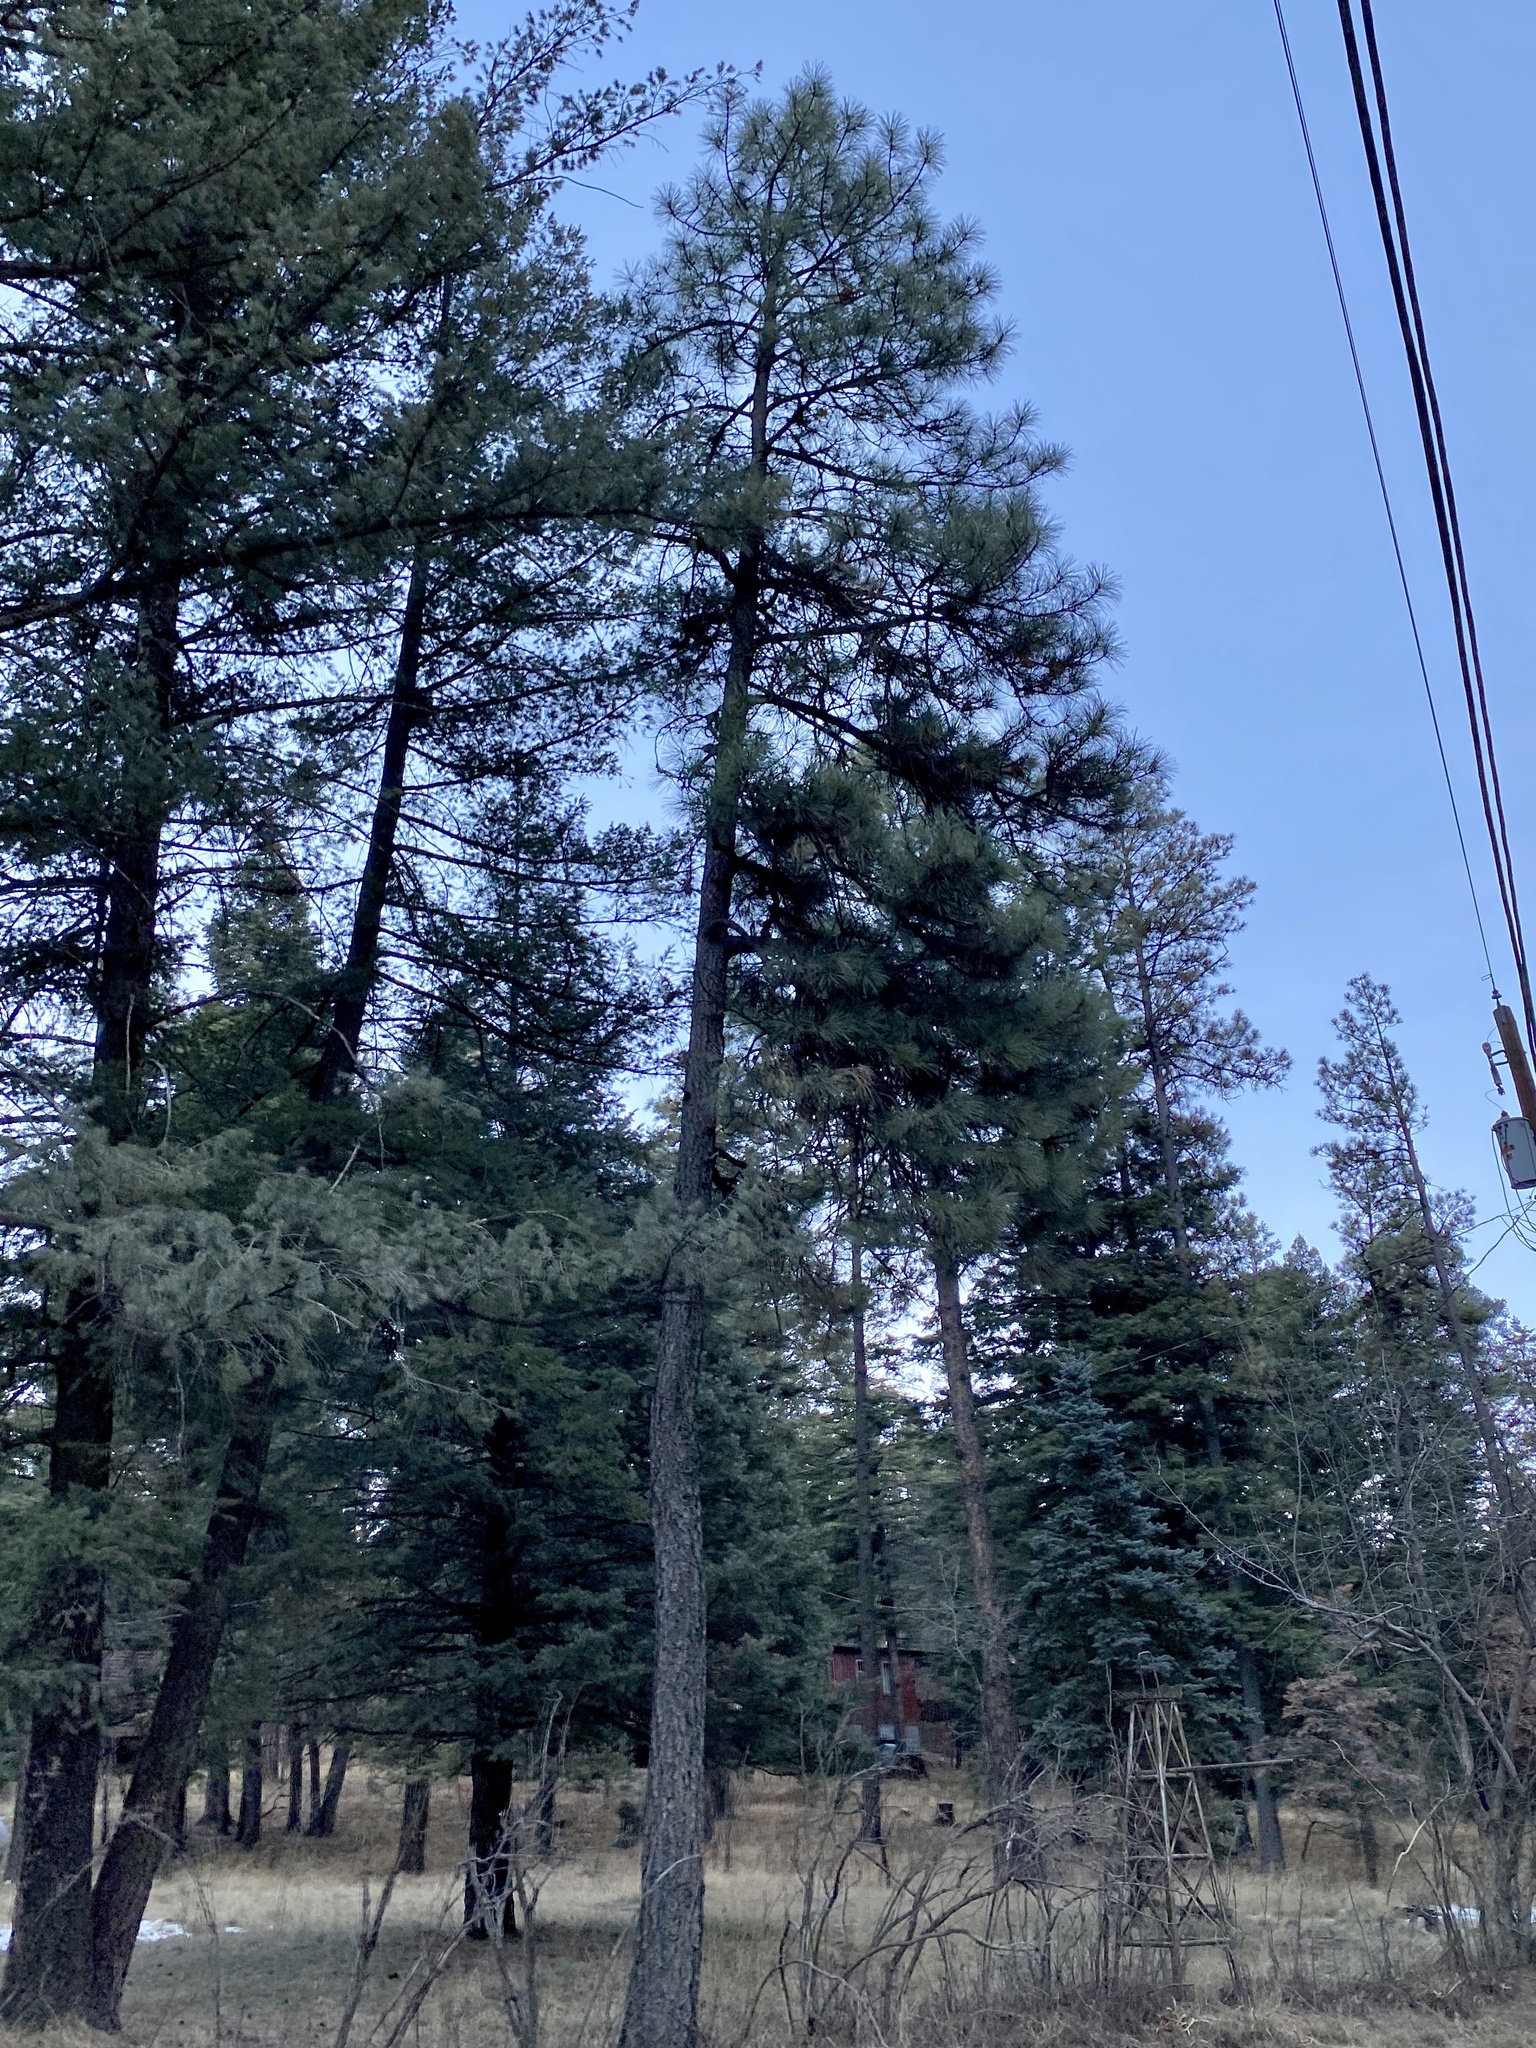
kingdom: Plantae
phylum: Tracheophyta
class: Pinopsida
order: Pinales
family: Pinaceae
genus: Pinus
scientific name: Pinus ponderosa
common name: Western yellow-pine
